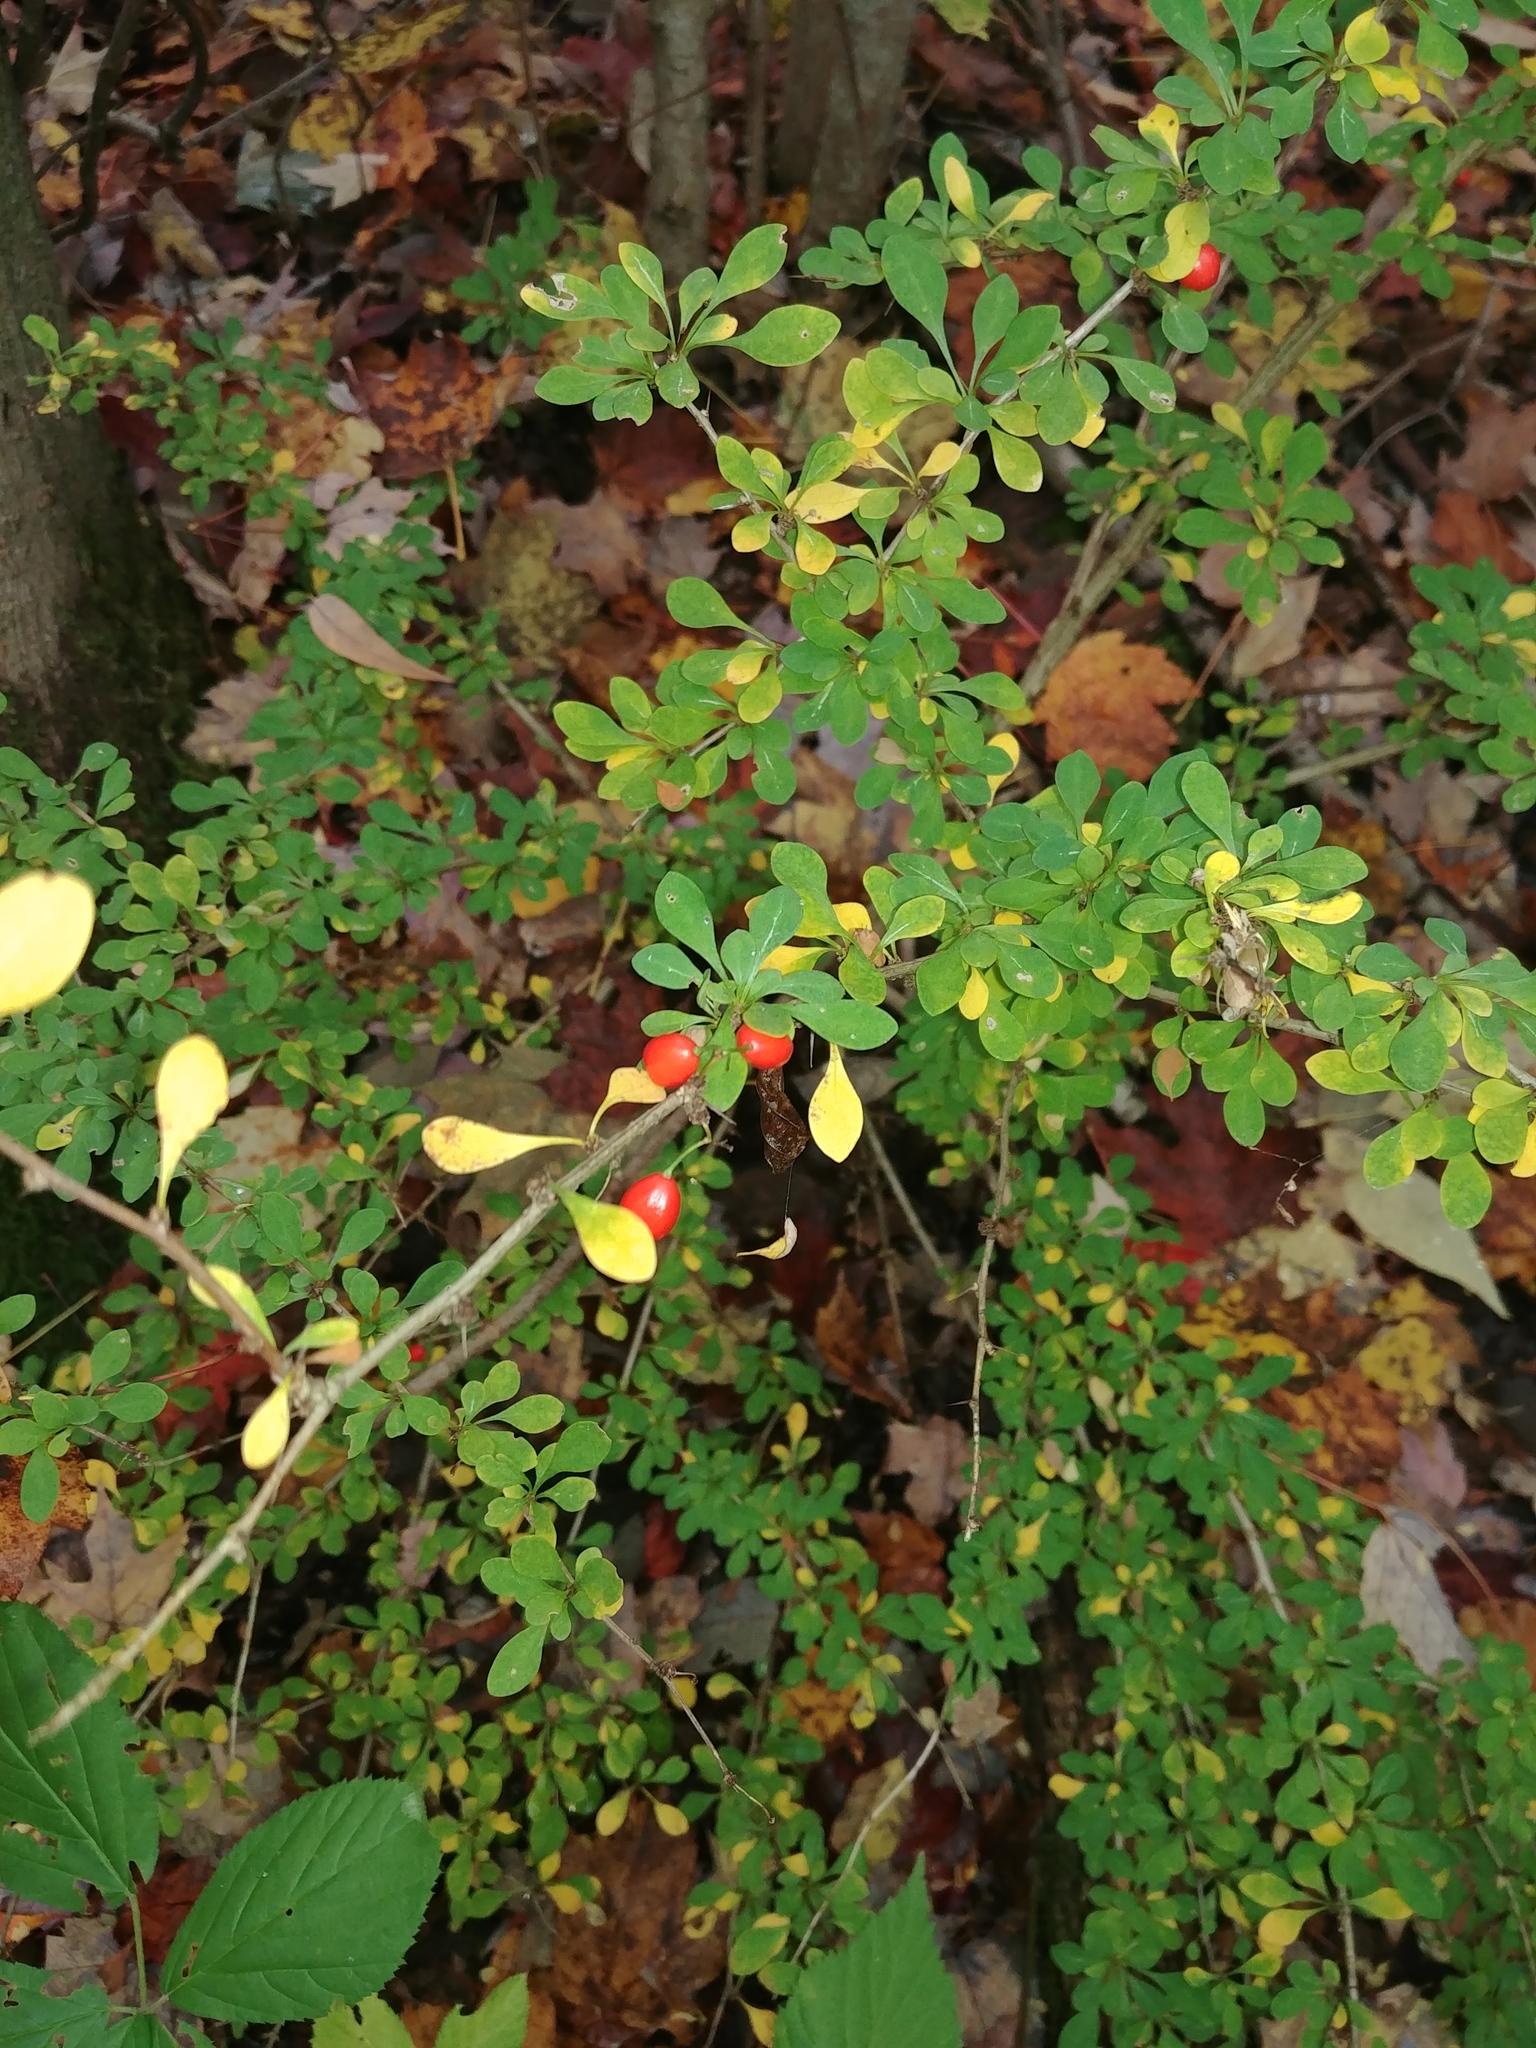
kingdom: Plantae
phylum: Tracheophyta
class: Magnoliopsida
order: Ranunculales
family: Berberidaceae
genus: Berberis
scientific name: Berberis thunbergii
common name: Japanese barberry
